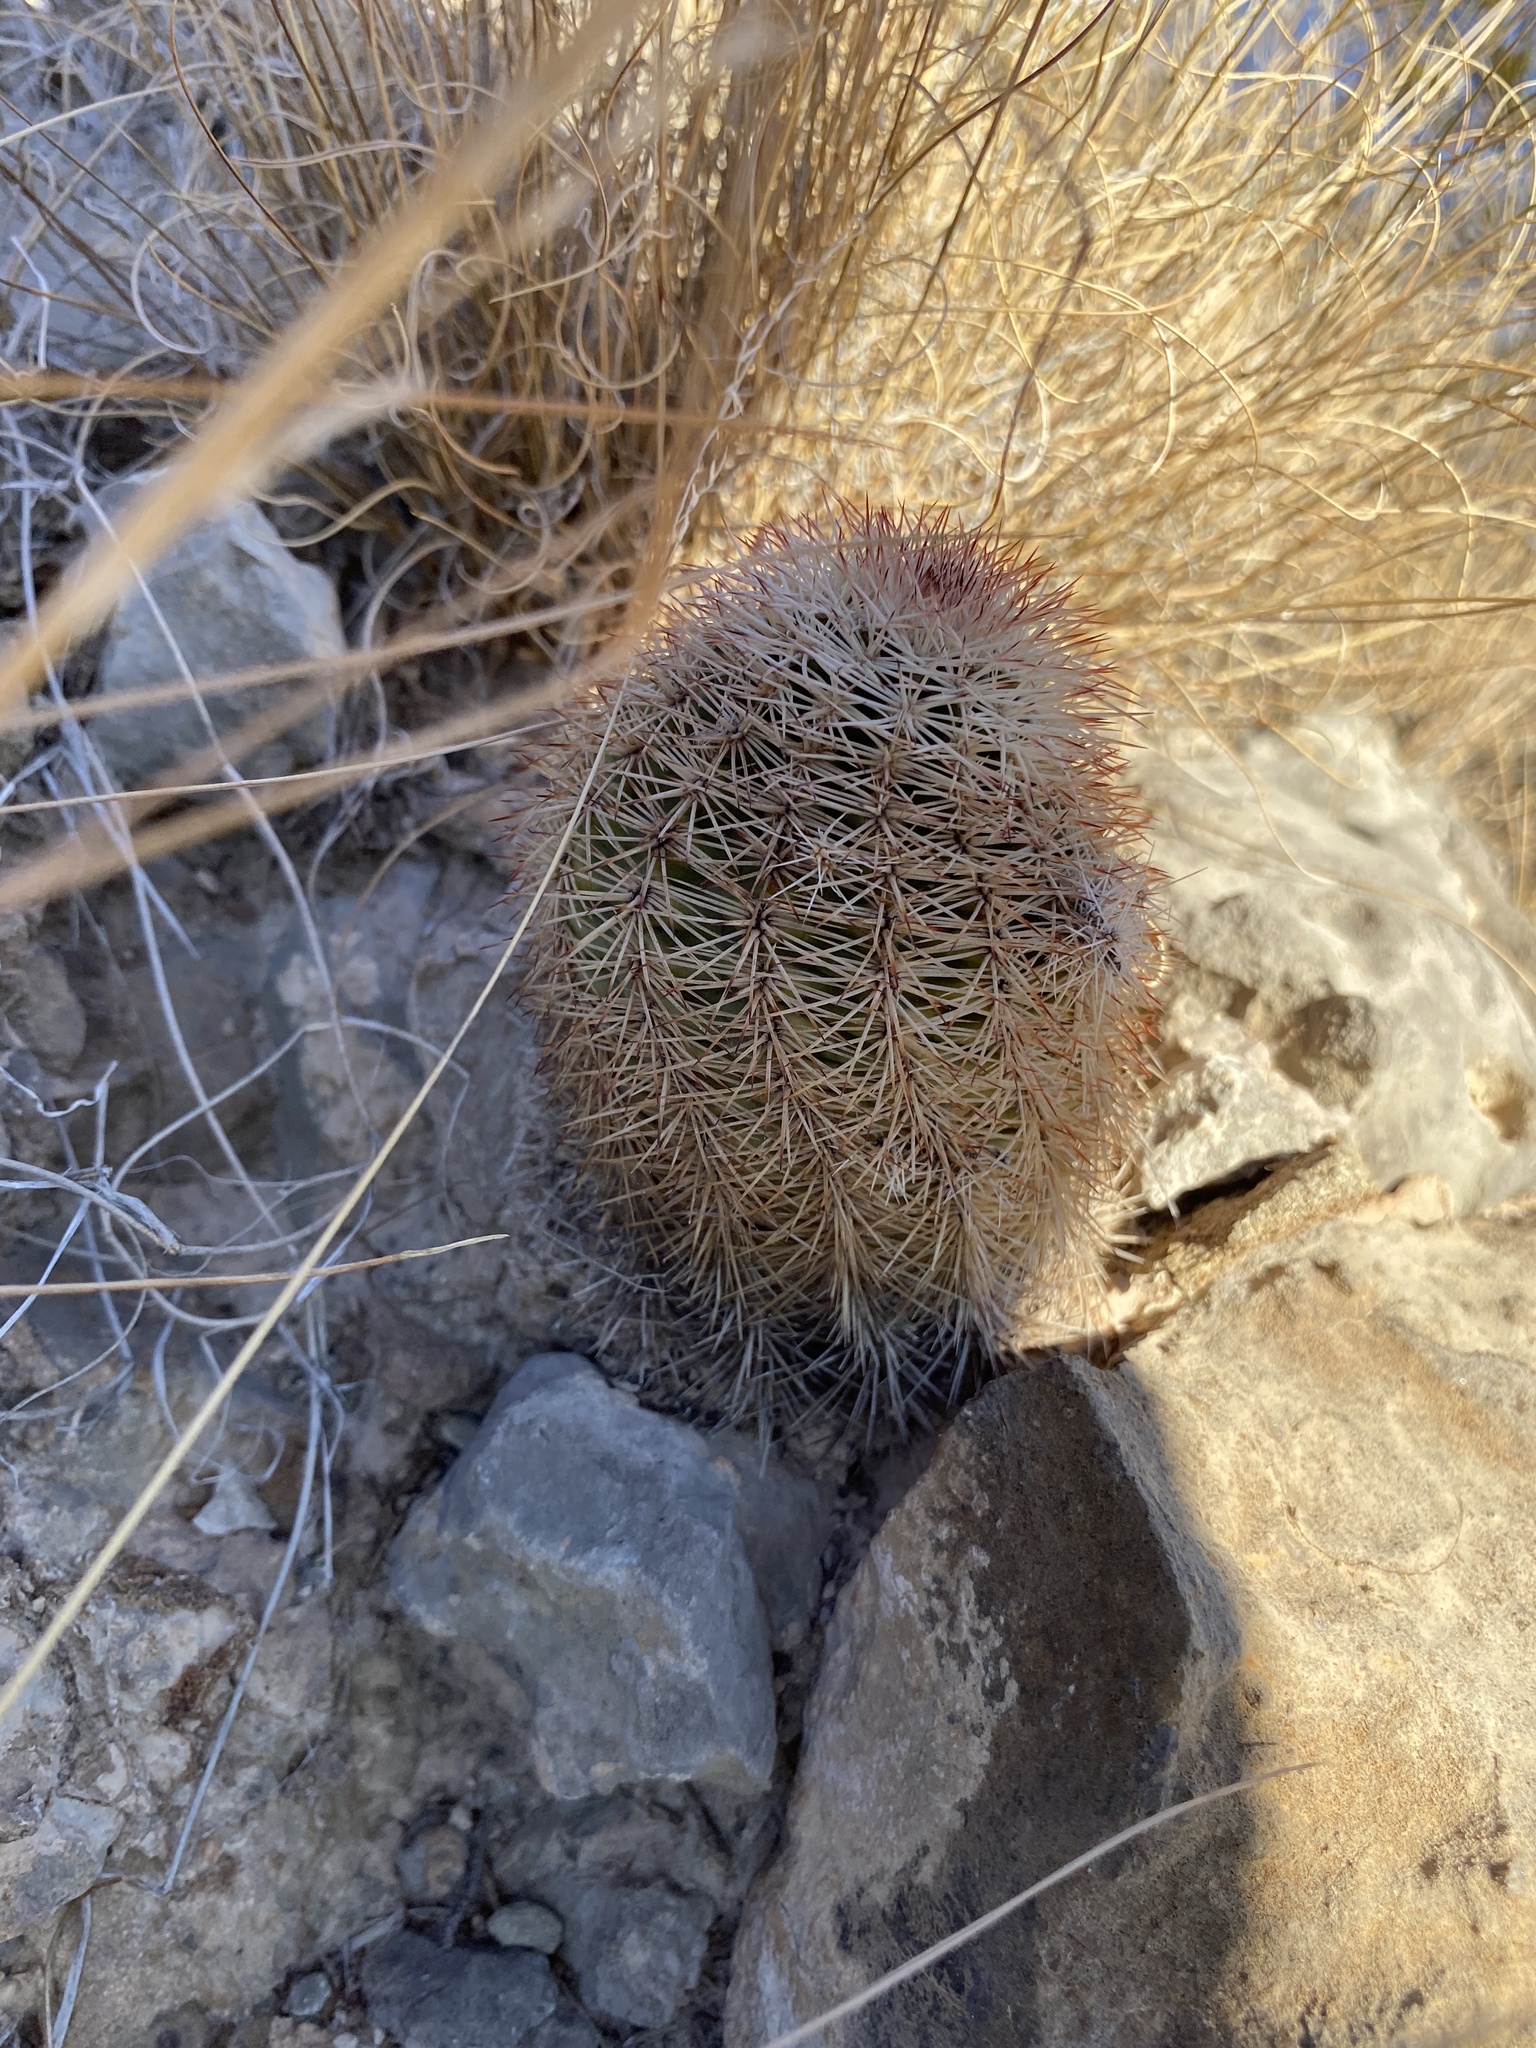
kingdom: Plantae
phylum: Tracheophyta
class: Magnoliopsida
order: Caryophyllales
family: Cactaceae
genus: Echinocereus
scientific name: Echinocereus dasyacanthus
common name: Spiny hedgehog cactus
